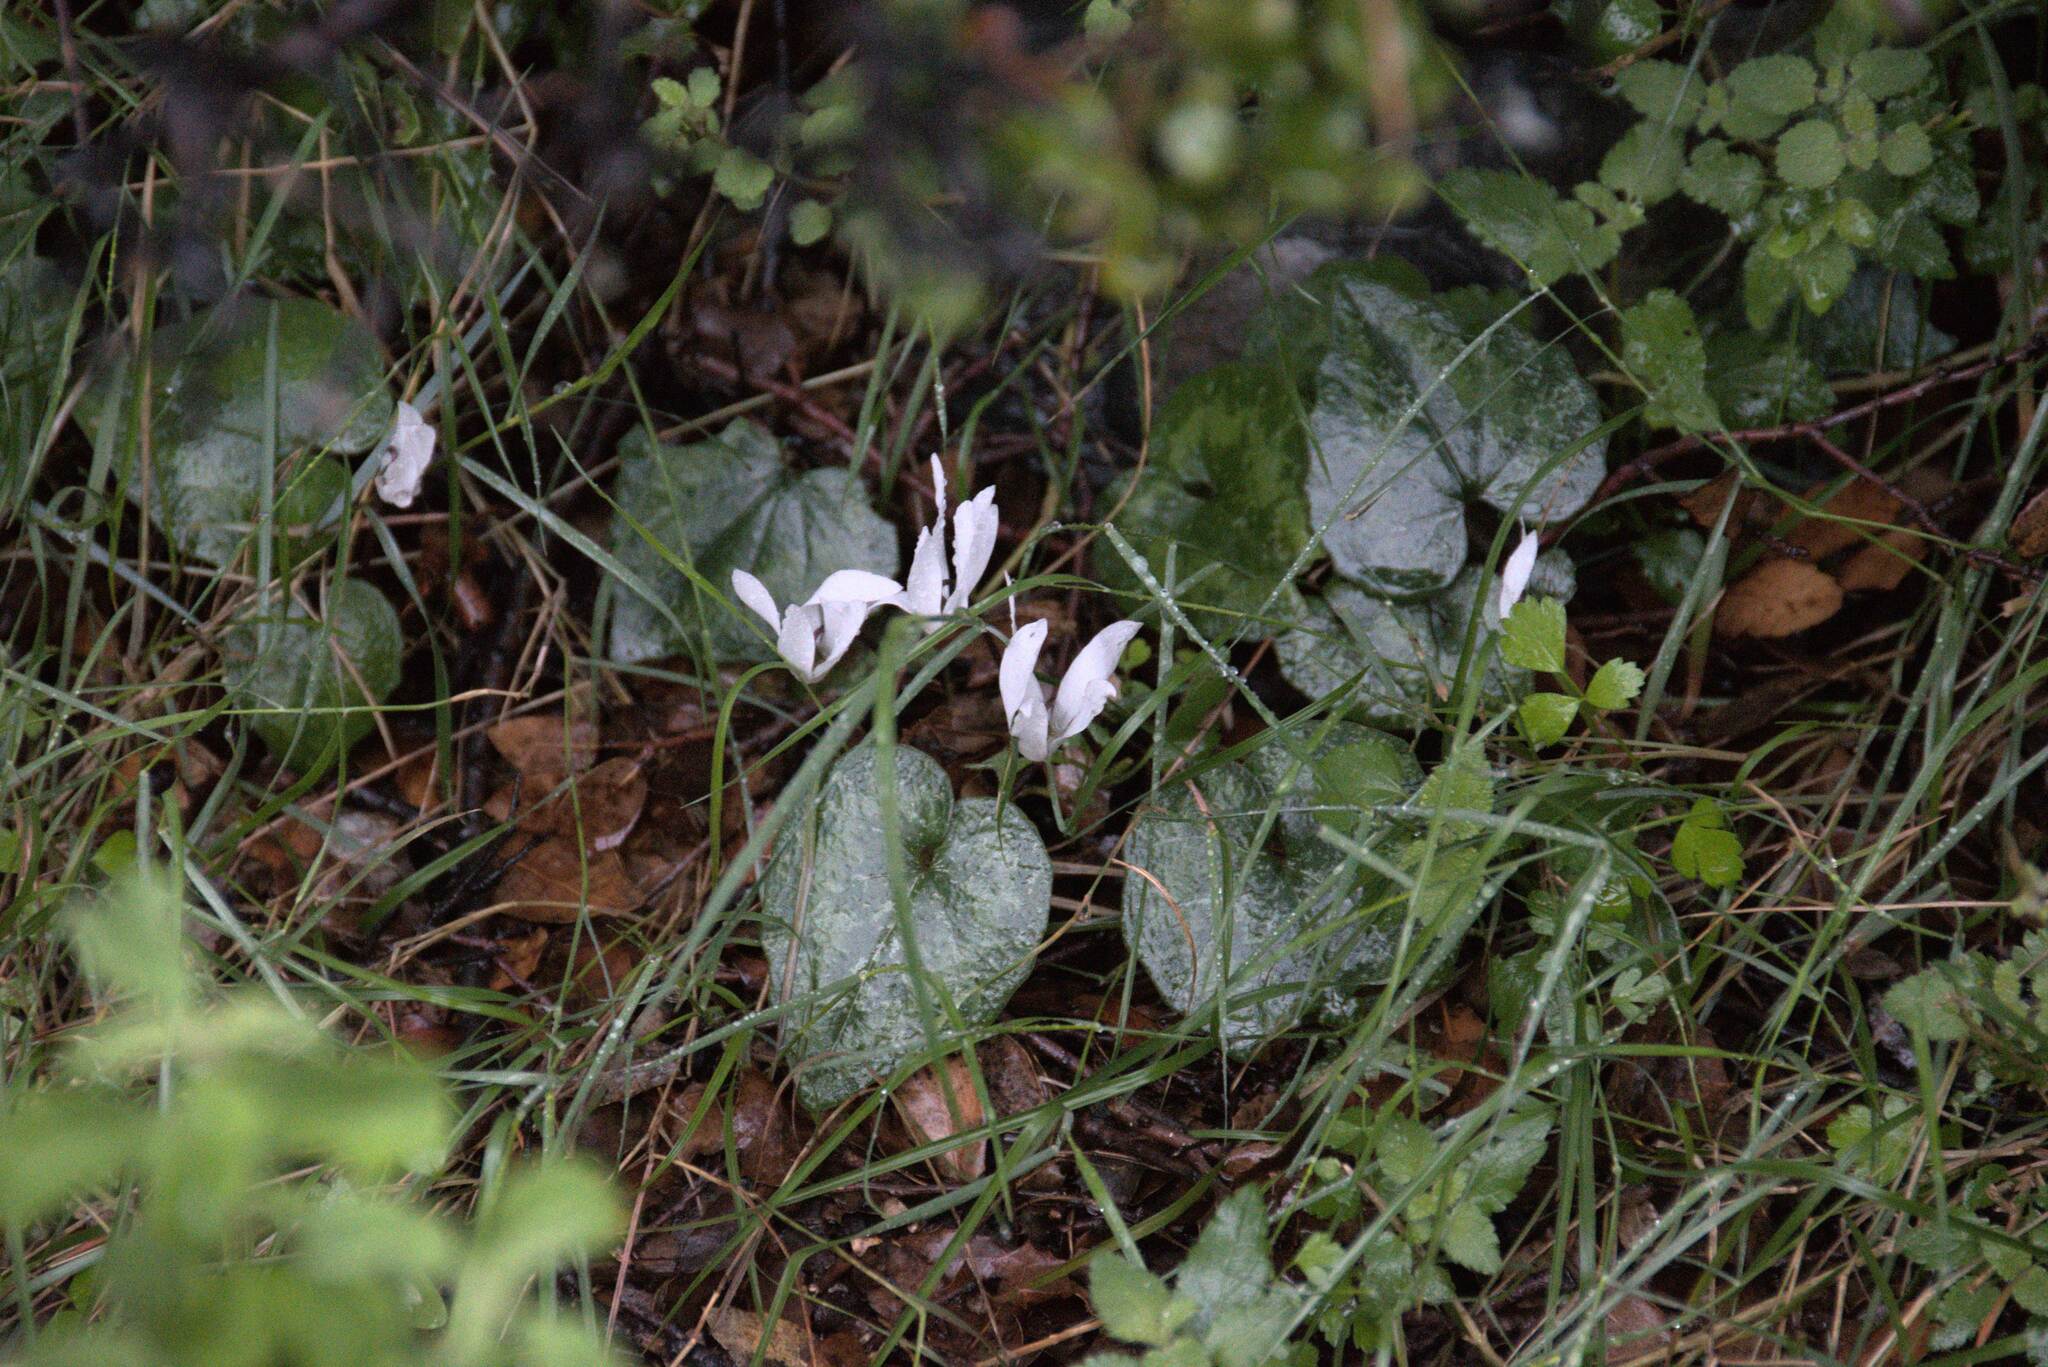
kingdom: Plantae
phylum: Tracheophyta
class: Magnoliopsida
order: Ericales
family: Primulaceae
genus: Cyclamen
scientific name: Cyclamen creticum
